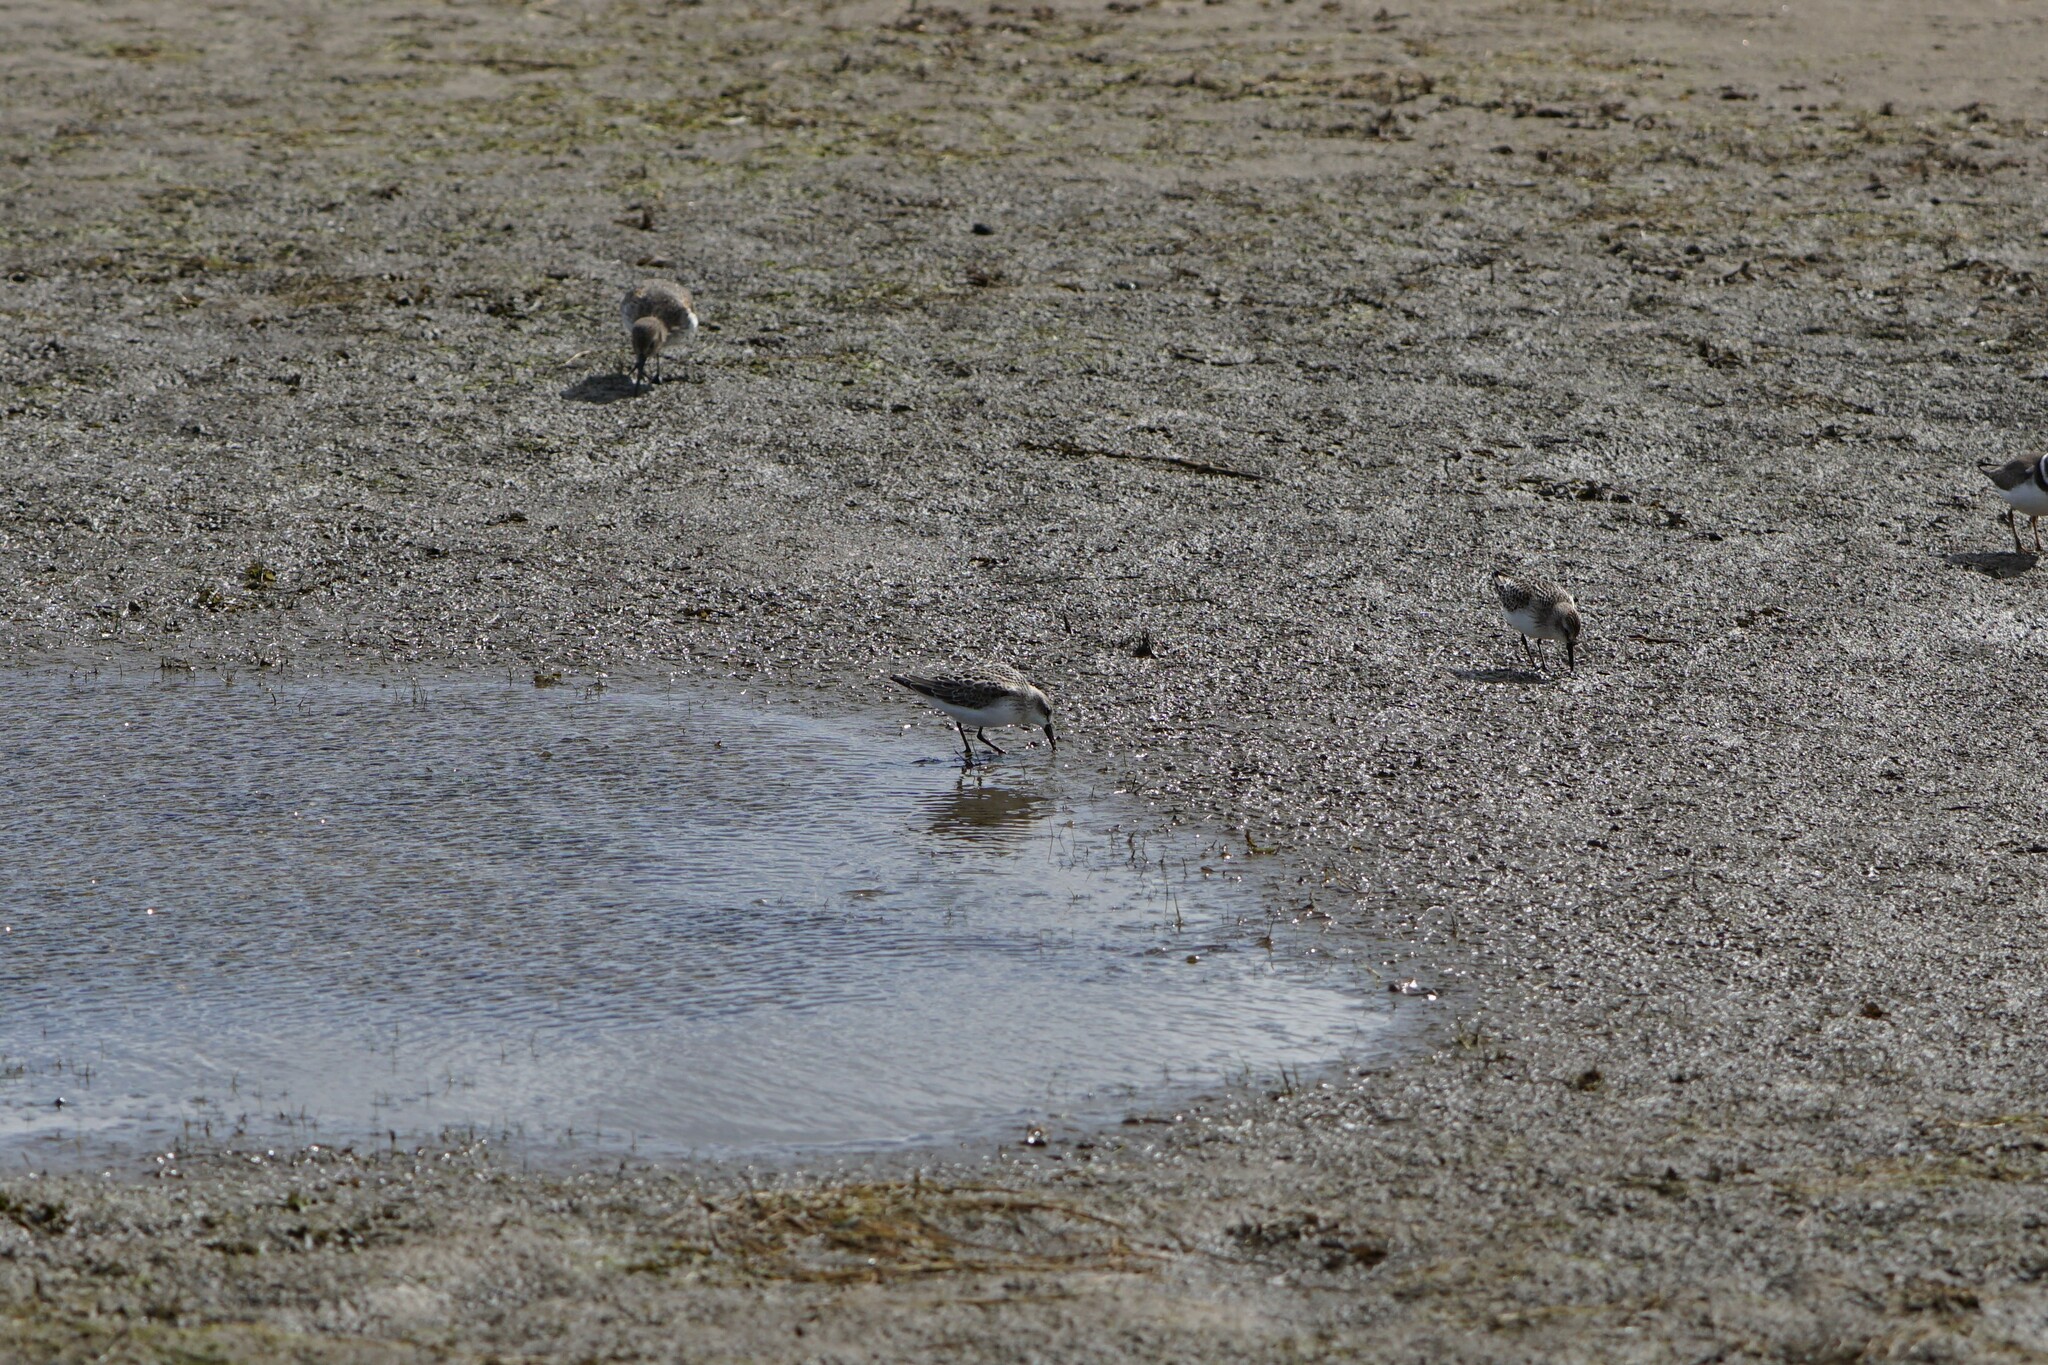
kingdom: Animalia
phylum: Chordata
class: Aves
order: Charadriiformes
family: Scolopacidae
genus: Calidris
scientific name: Calidris pusilla
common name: Semipalmated sandpiper
